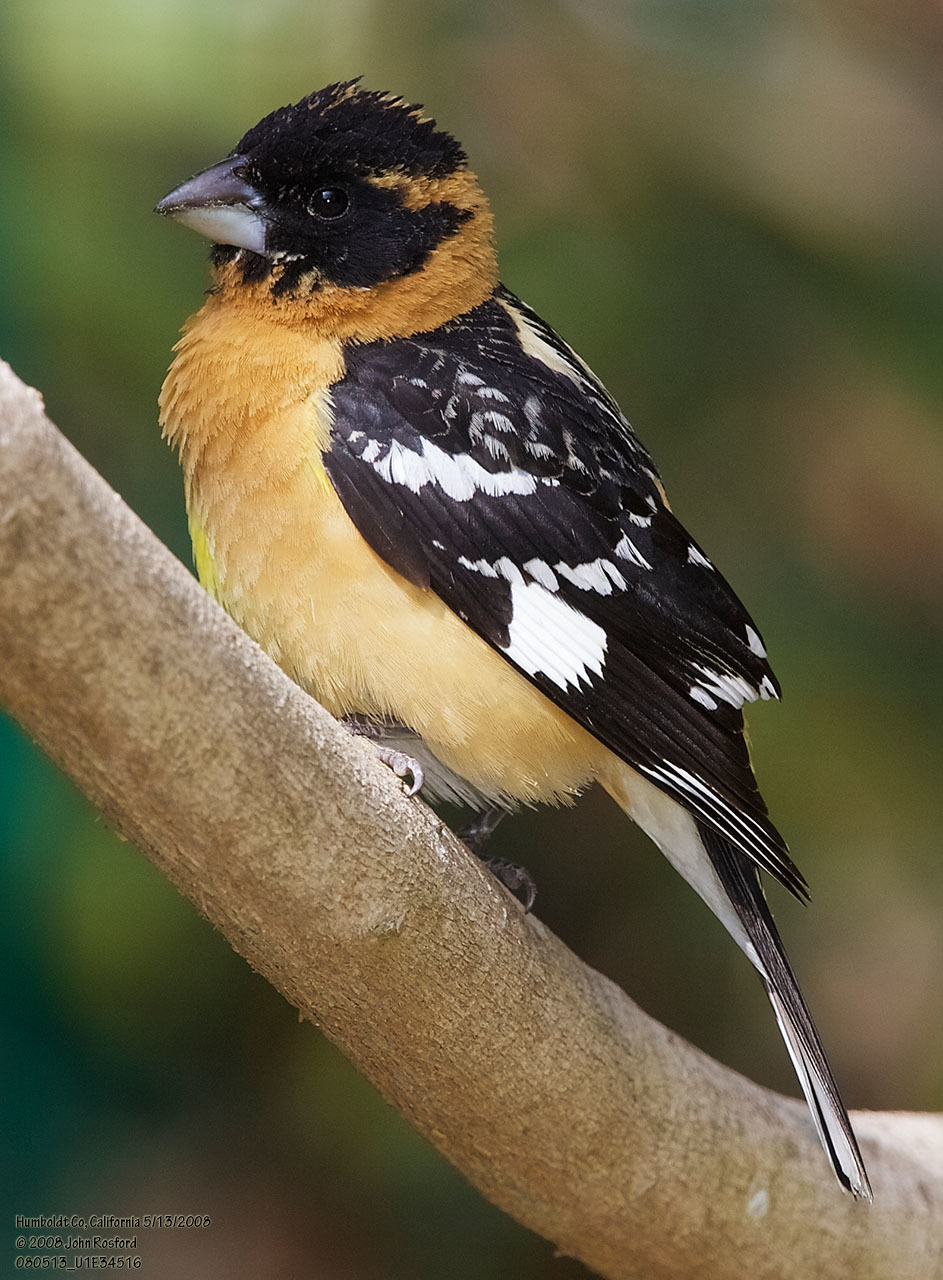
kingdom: Animalia
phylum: Chordata
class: Aves
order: Passeriformes
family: Cardinalidae
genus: Pheucticus
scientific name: Pheucticus melanocephalus
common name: Black-headed grosbeak
